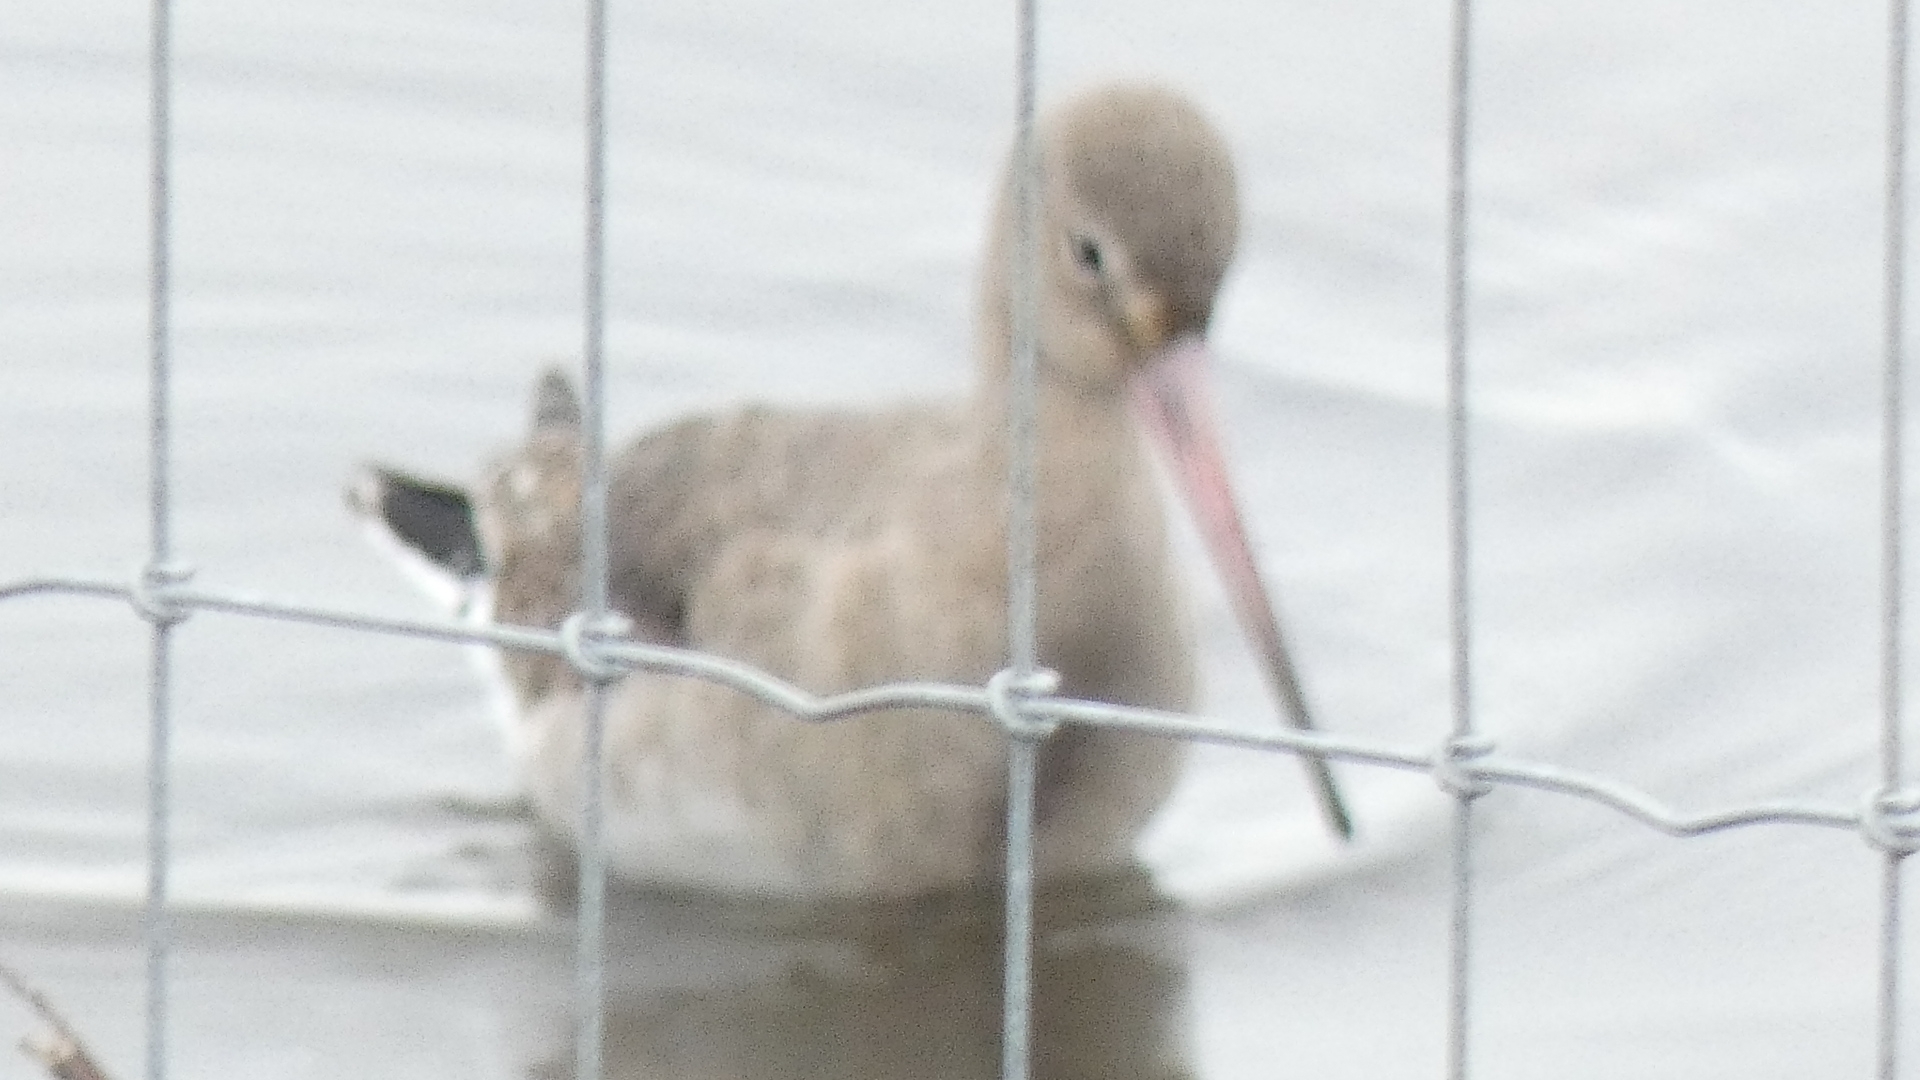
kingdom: Animalia
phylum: Chordata
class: Aves
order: Charadriiformes
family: Scolopacidae
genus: Limosa
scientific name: Limosa limosa
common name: Black-tailed godwit
